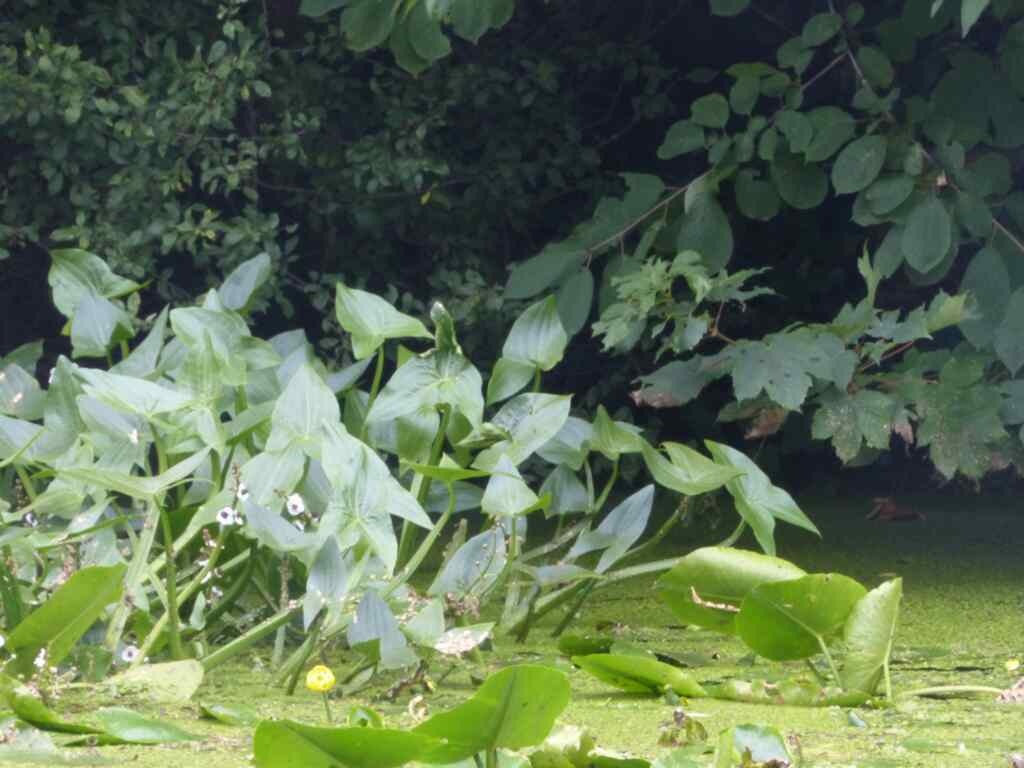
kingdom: Plantae
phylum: Tracheophyta
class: Liliopsida
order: Alismatales
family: Alismataceae
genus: Sagittaria
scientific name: Sagittaria sagittifolia
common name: Arrowhead
